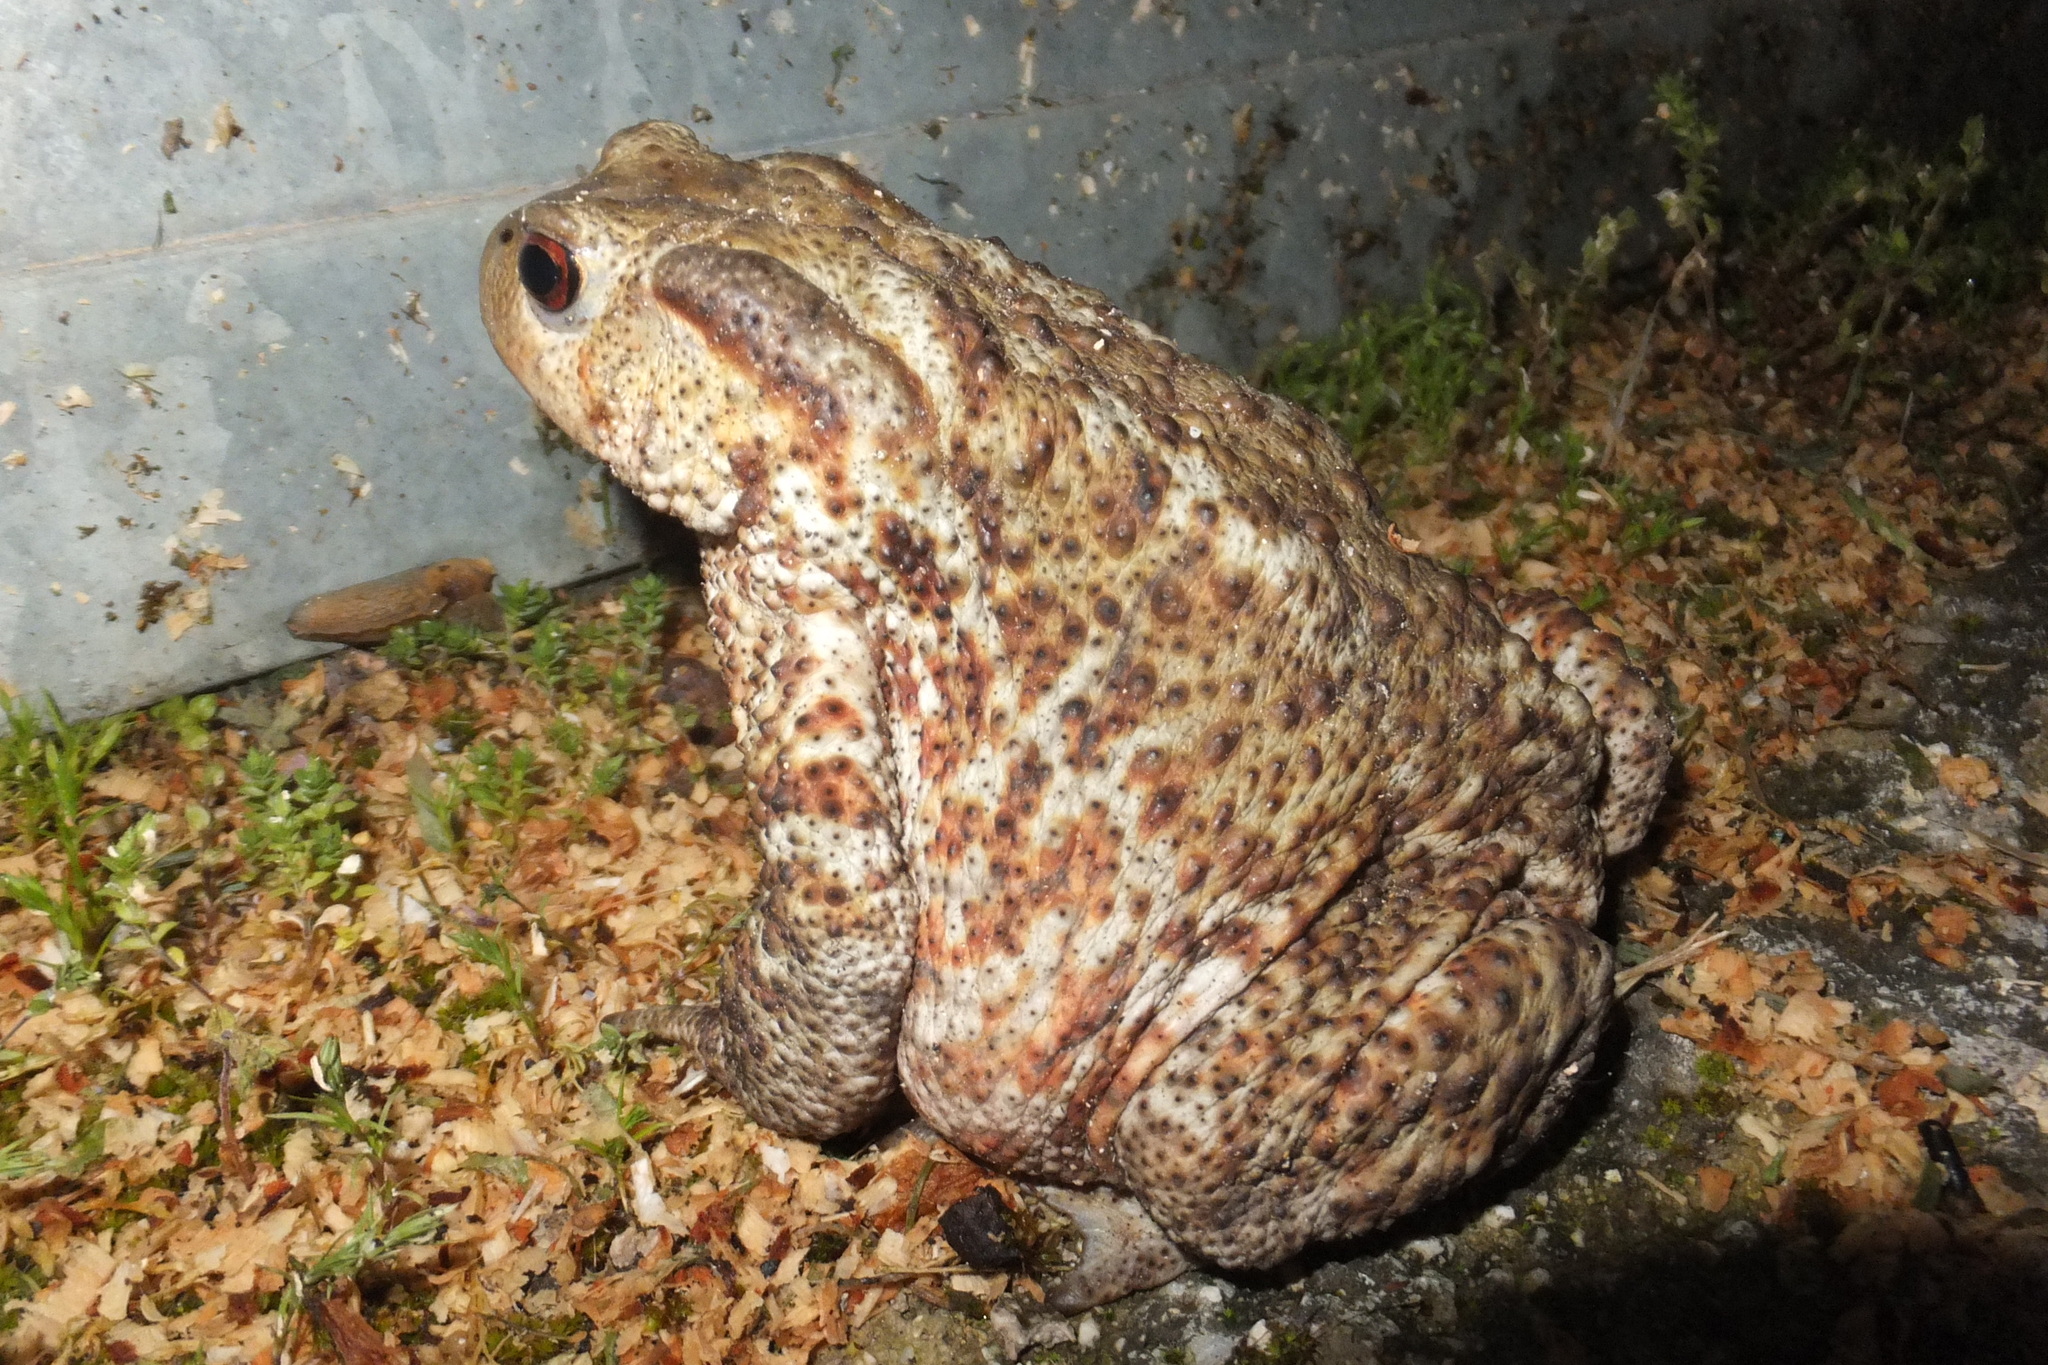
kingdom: Animalia
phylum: Chordata
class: Amphibia
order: Anura
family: Bufonidae
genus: Bufo
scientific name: Bufo bufo
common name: Common toad
